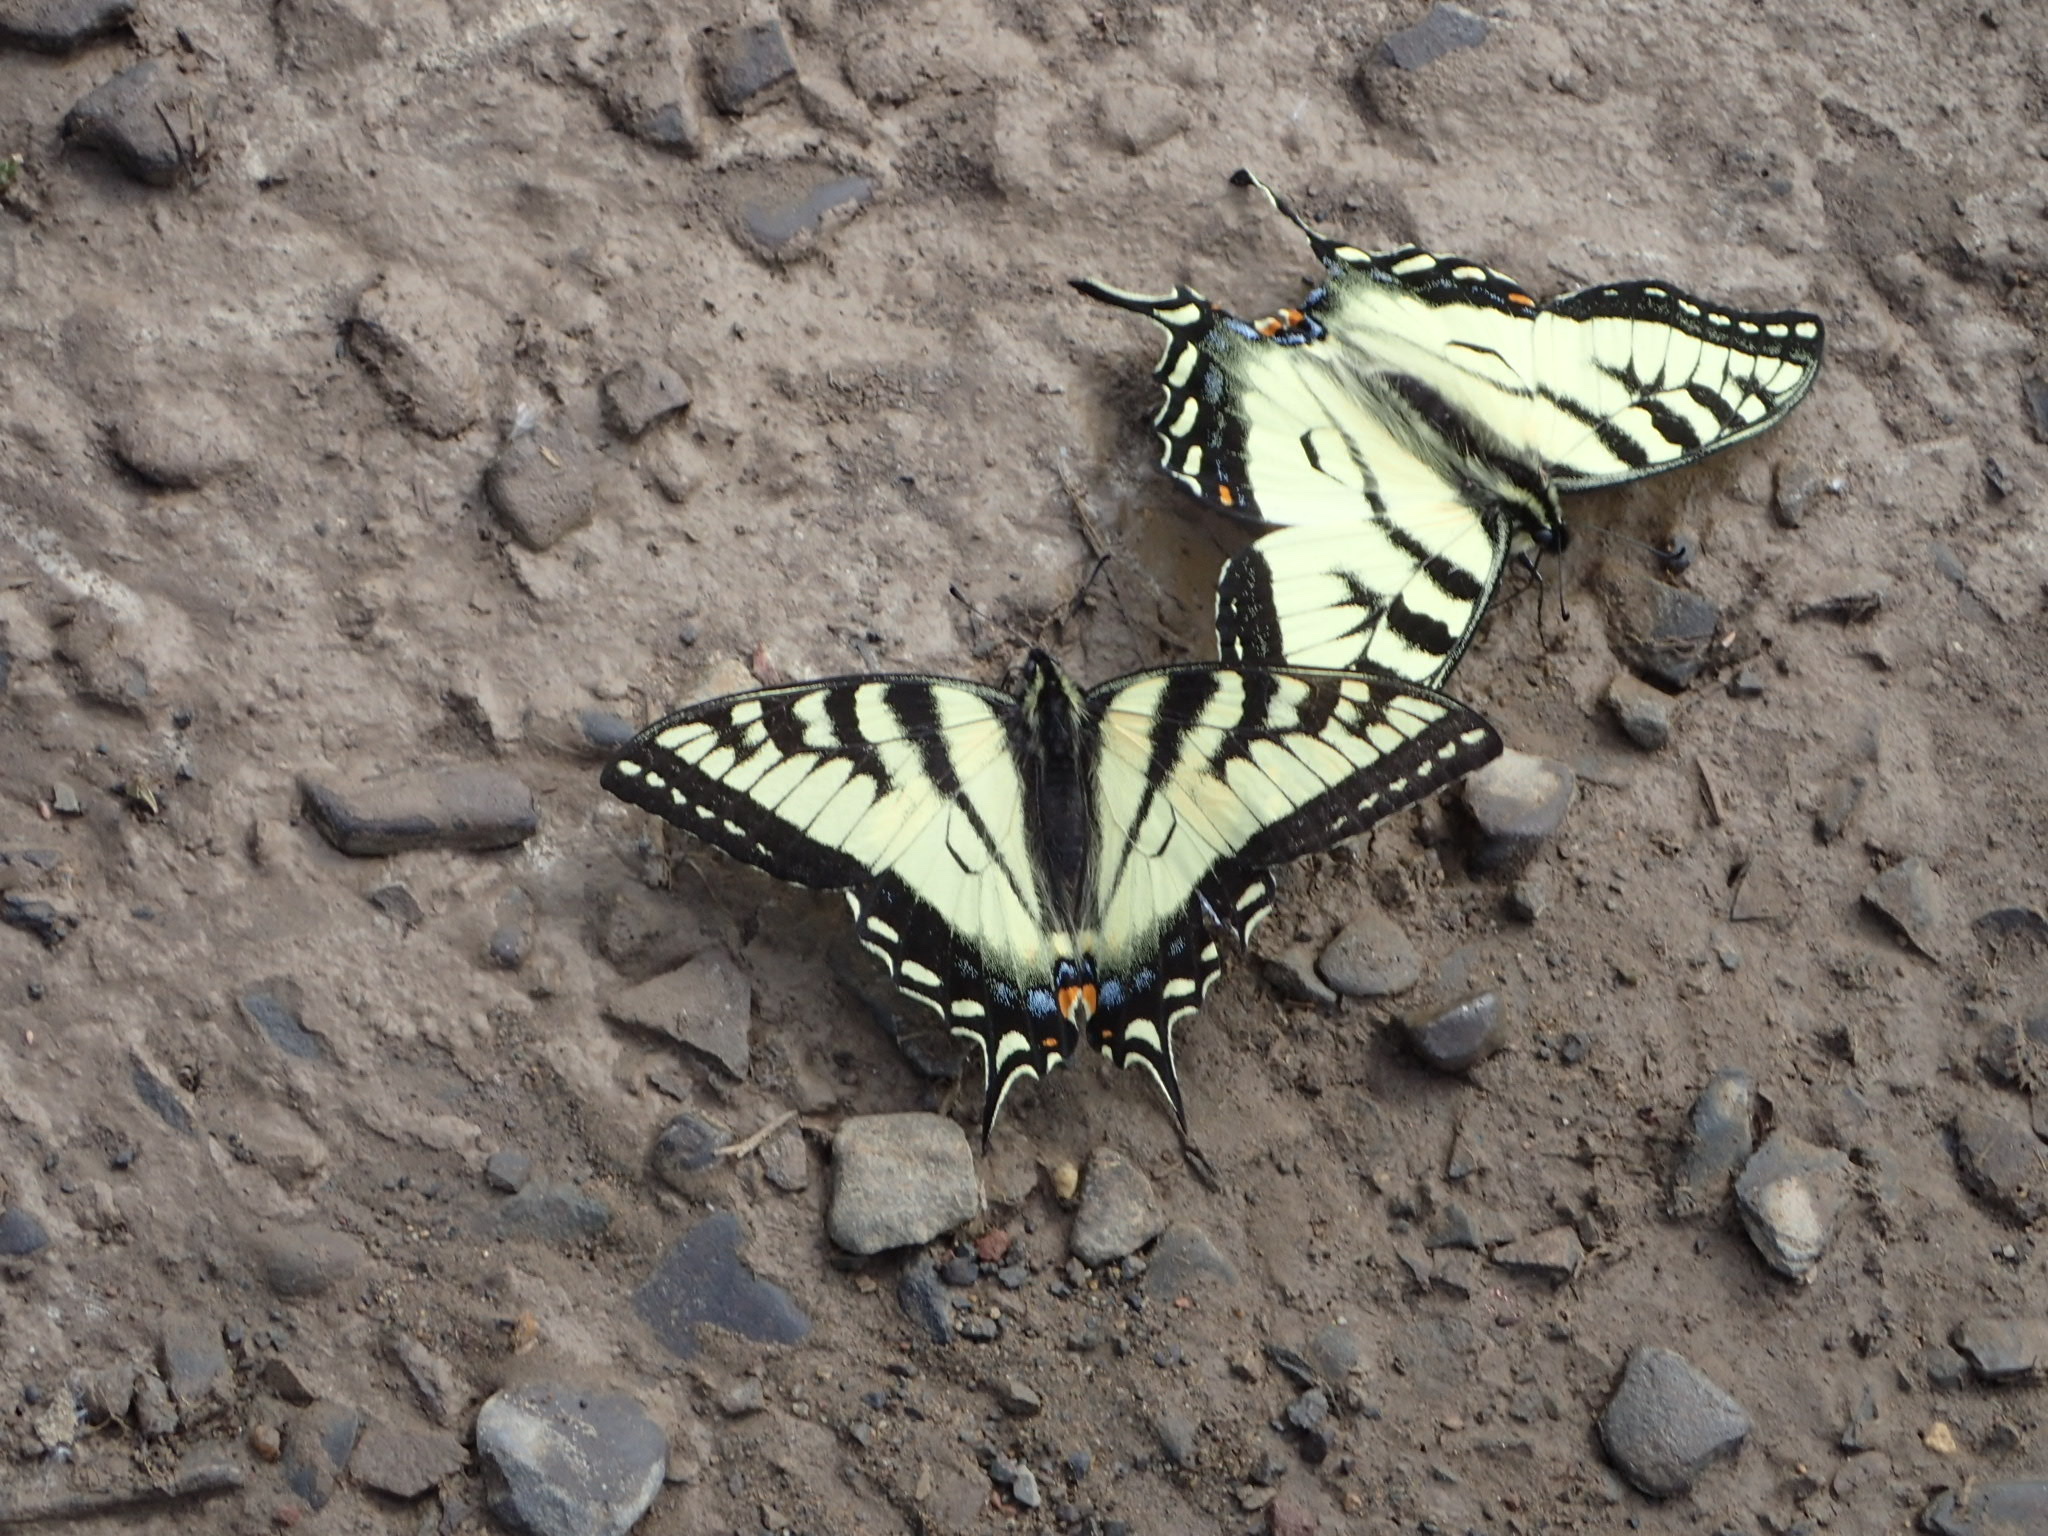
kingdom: Animalia
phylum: Arthropoda
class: Insecta
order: Lepidoptera
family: Papilionidae
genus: Papilio
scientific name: Papilio canadensis
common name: Canadian tiger swallowtail
